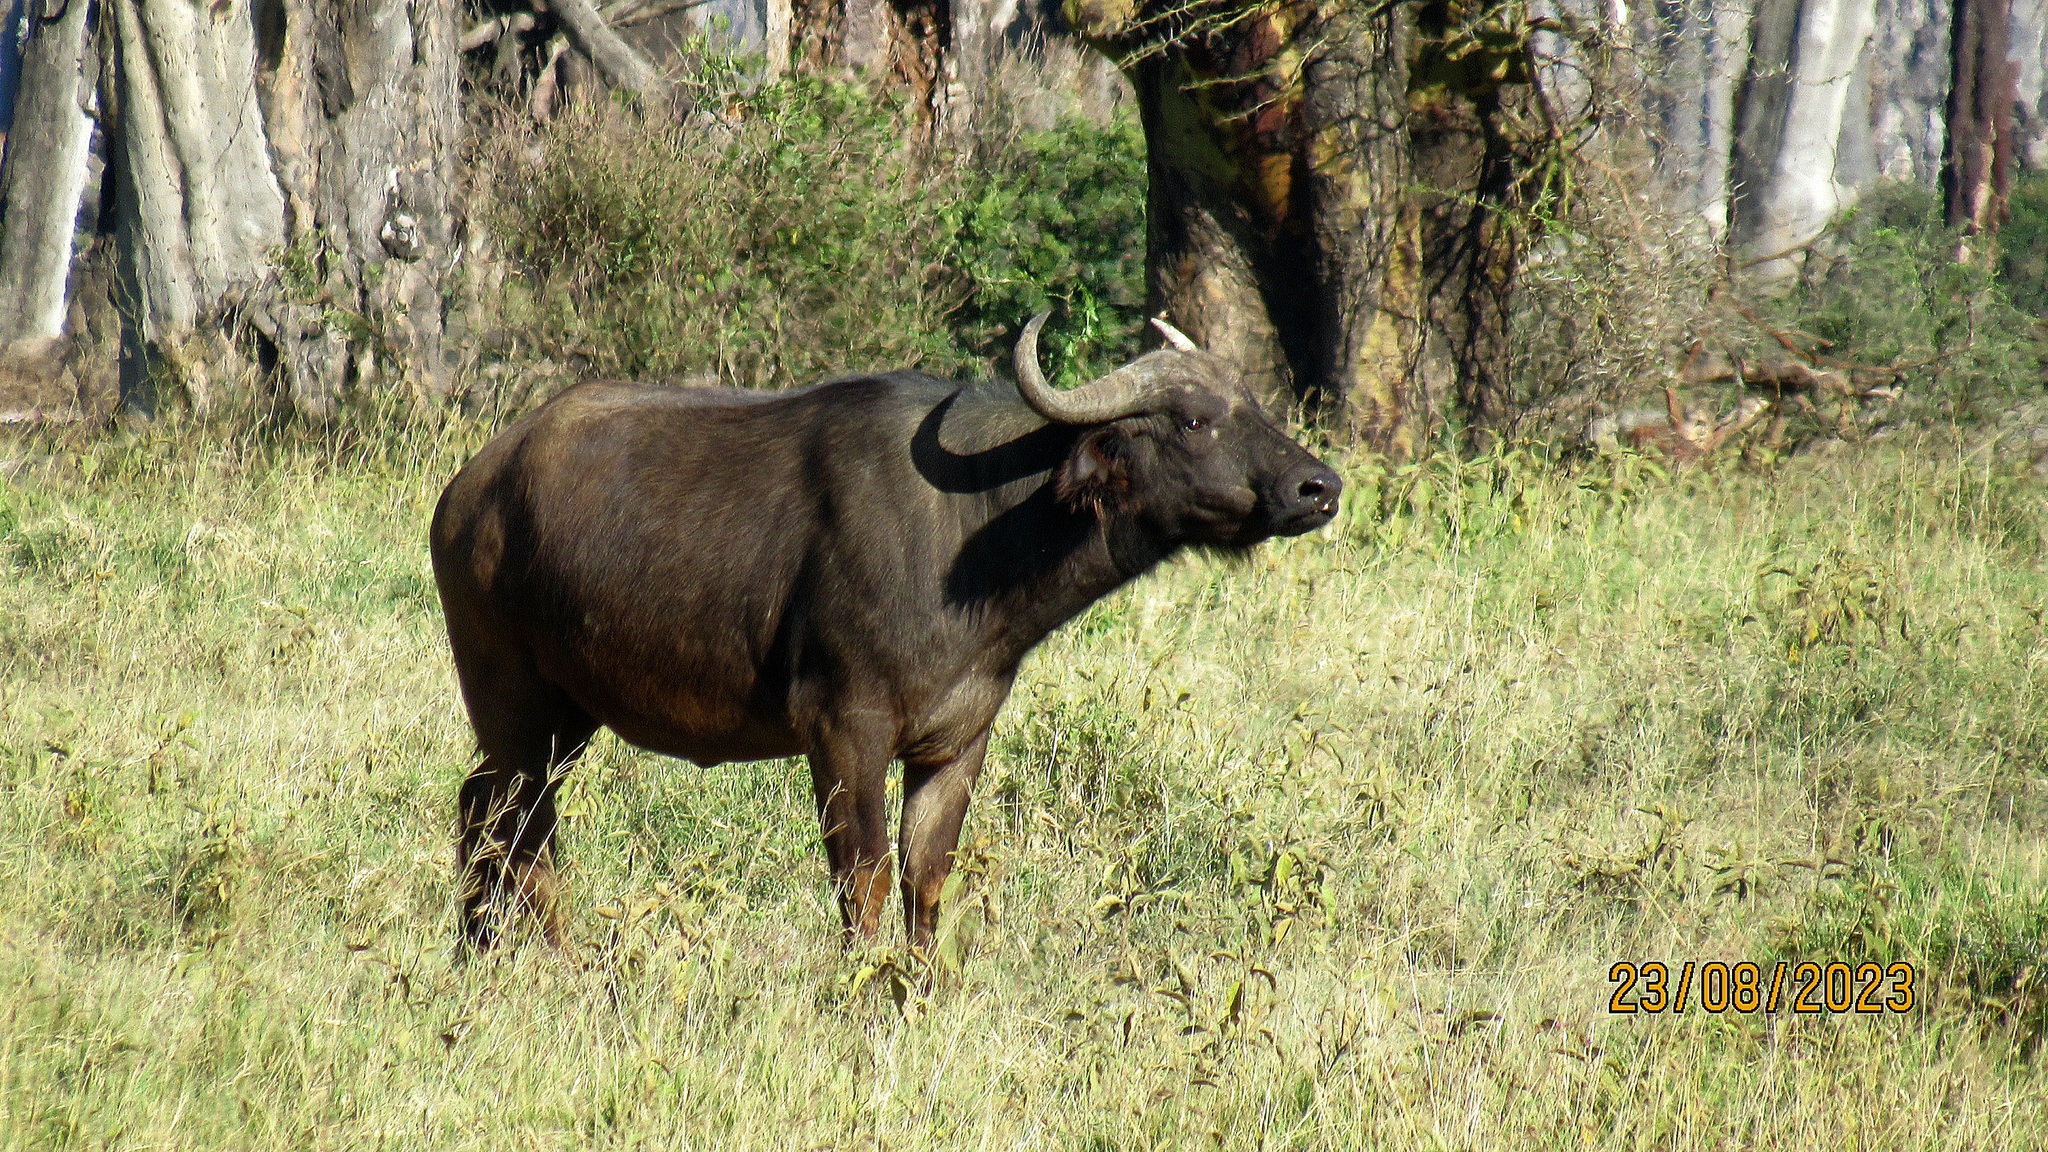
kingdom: Animalia
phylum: Chordata
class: Mammalia
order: Artiodactyla
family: Bovidae
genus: Syncerus
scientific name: Syncerus caffer
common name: African buffalo
